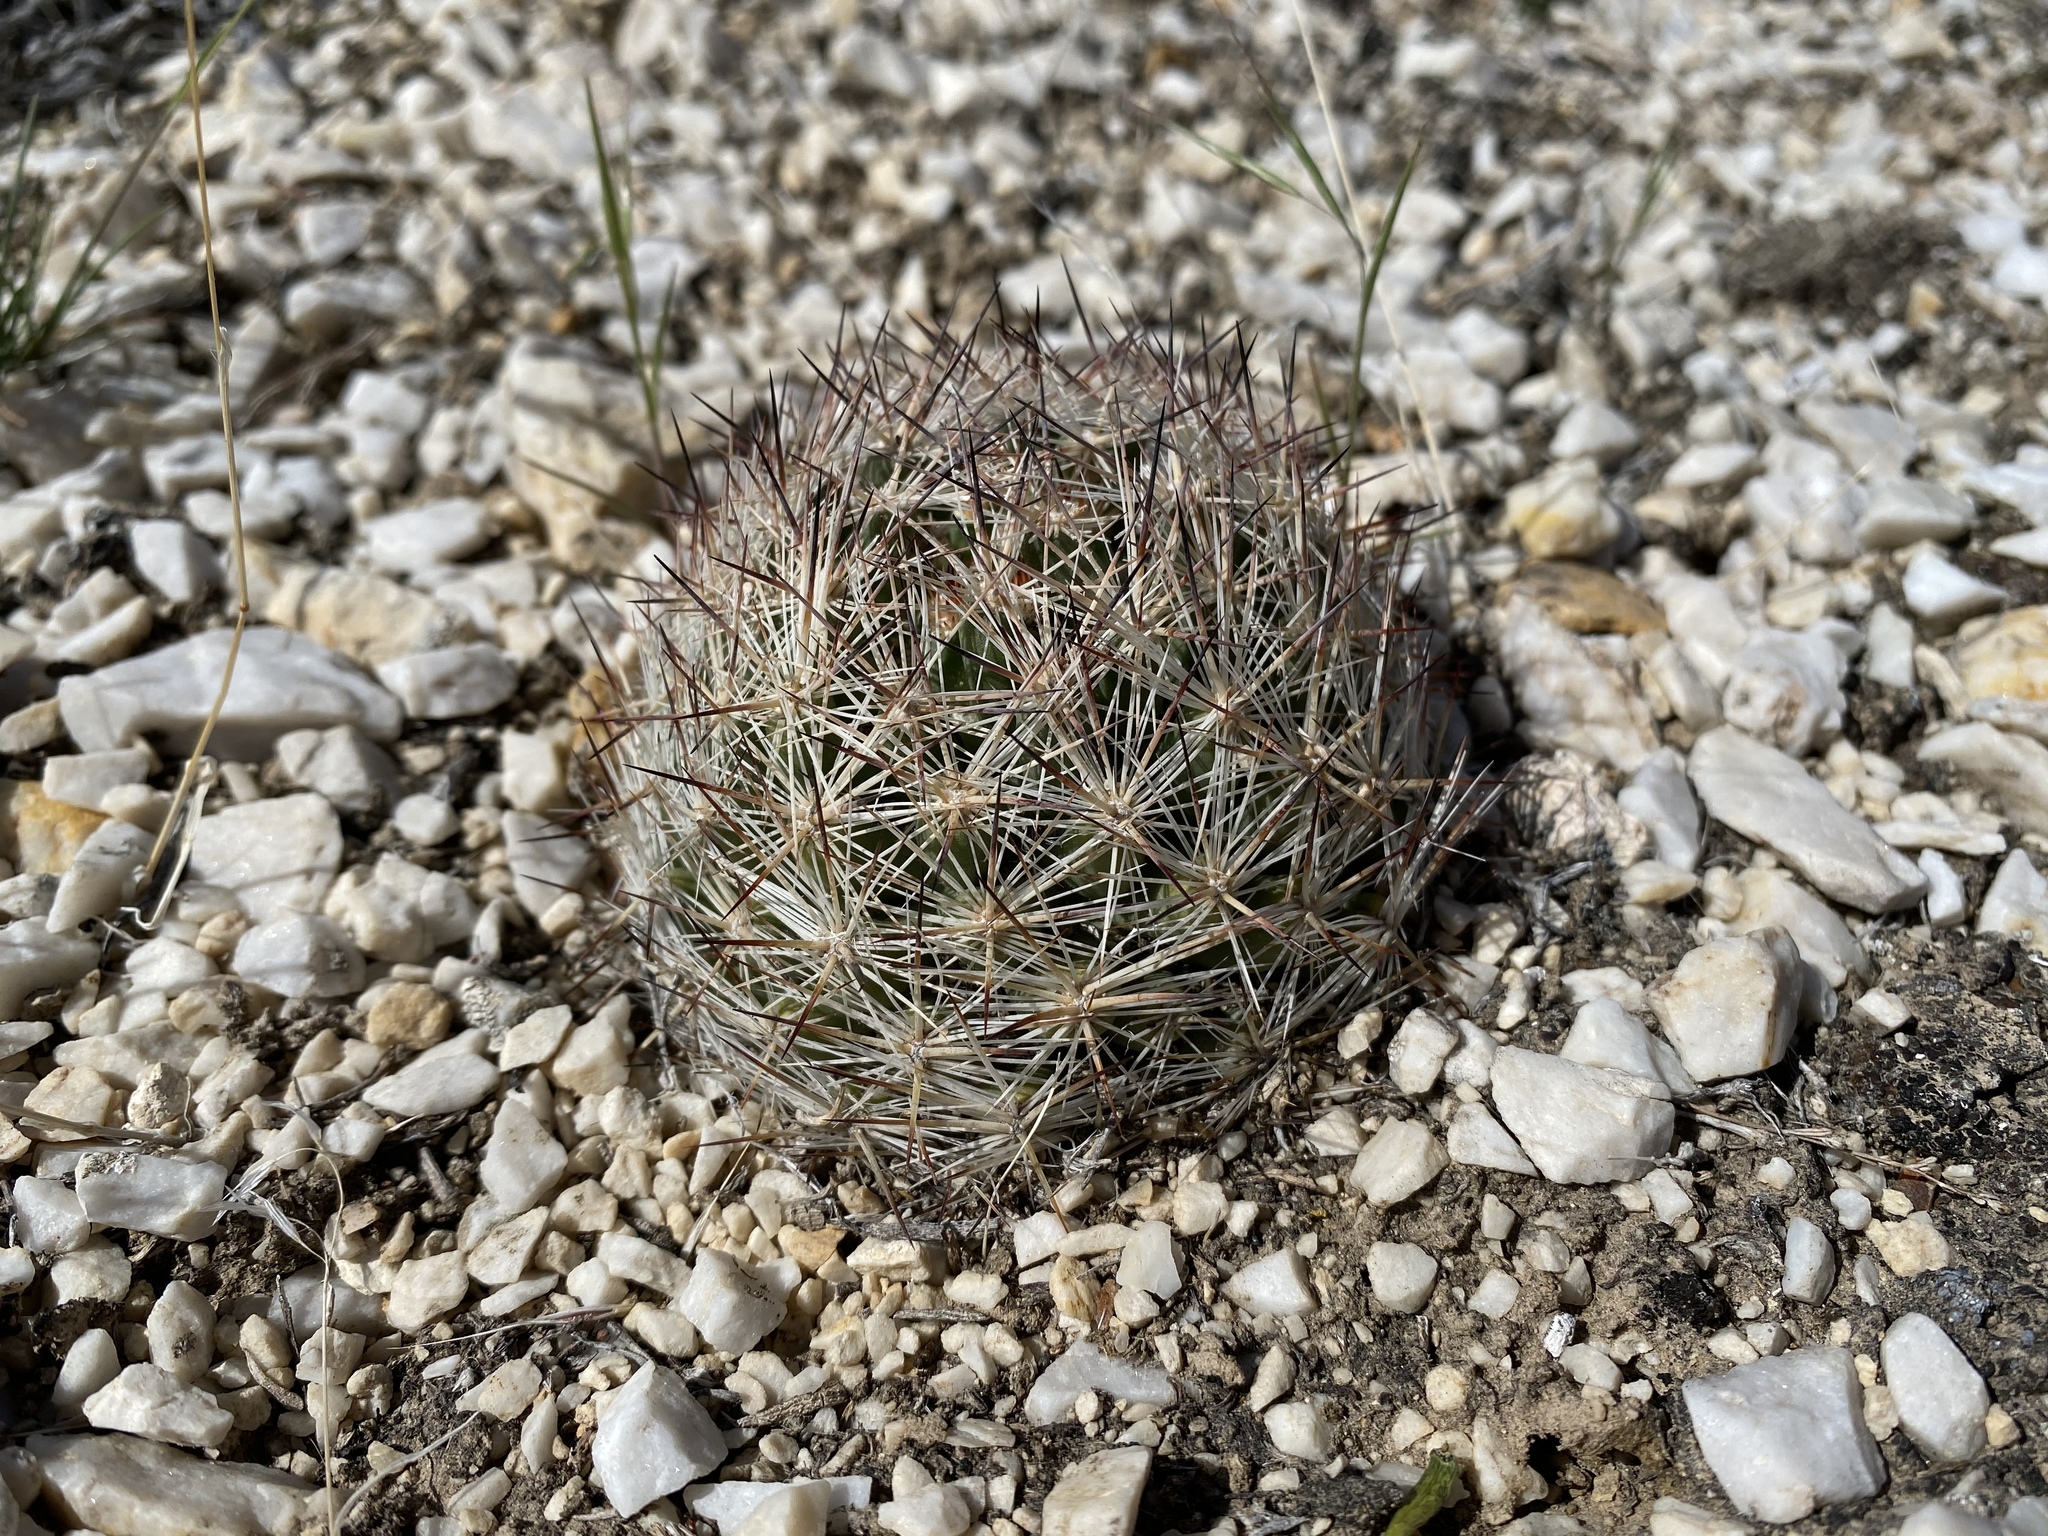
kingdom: Plantae
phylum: Tracheophyta
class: Magnoliopsida
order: Caryophyllales
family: Cactaceae
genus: Pelecyphora
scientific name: Pelecyphora vivipara
